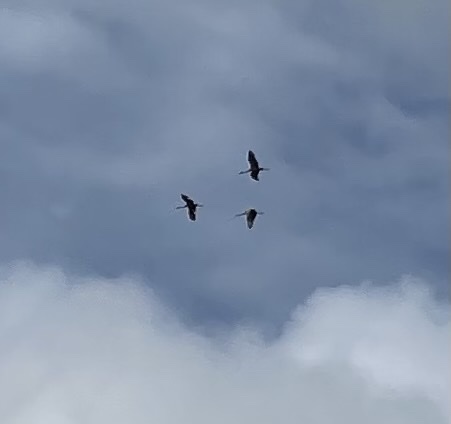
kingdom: Animalia
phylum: Chordata
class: Aves
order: Gruiformes
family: Gruidae
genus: Grus
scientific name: Grus canadensis
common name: Sandhill crane
